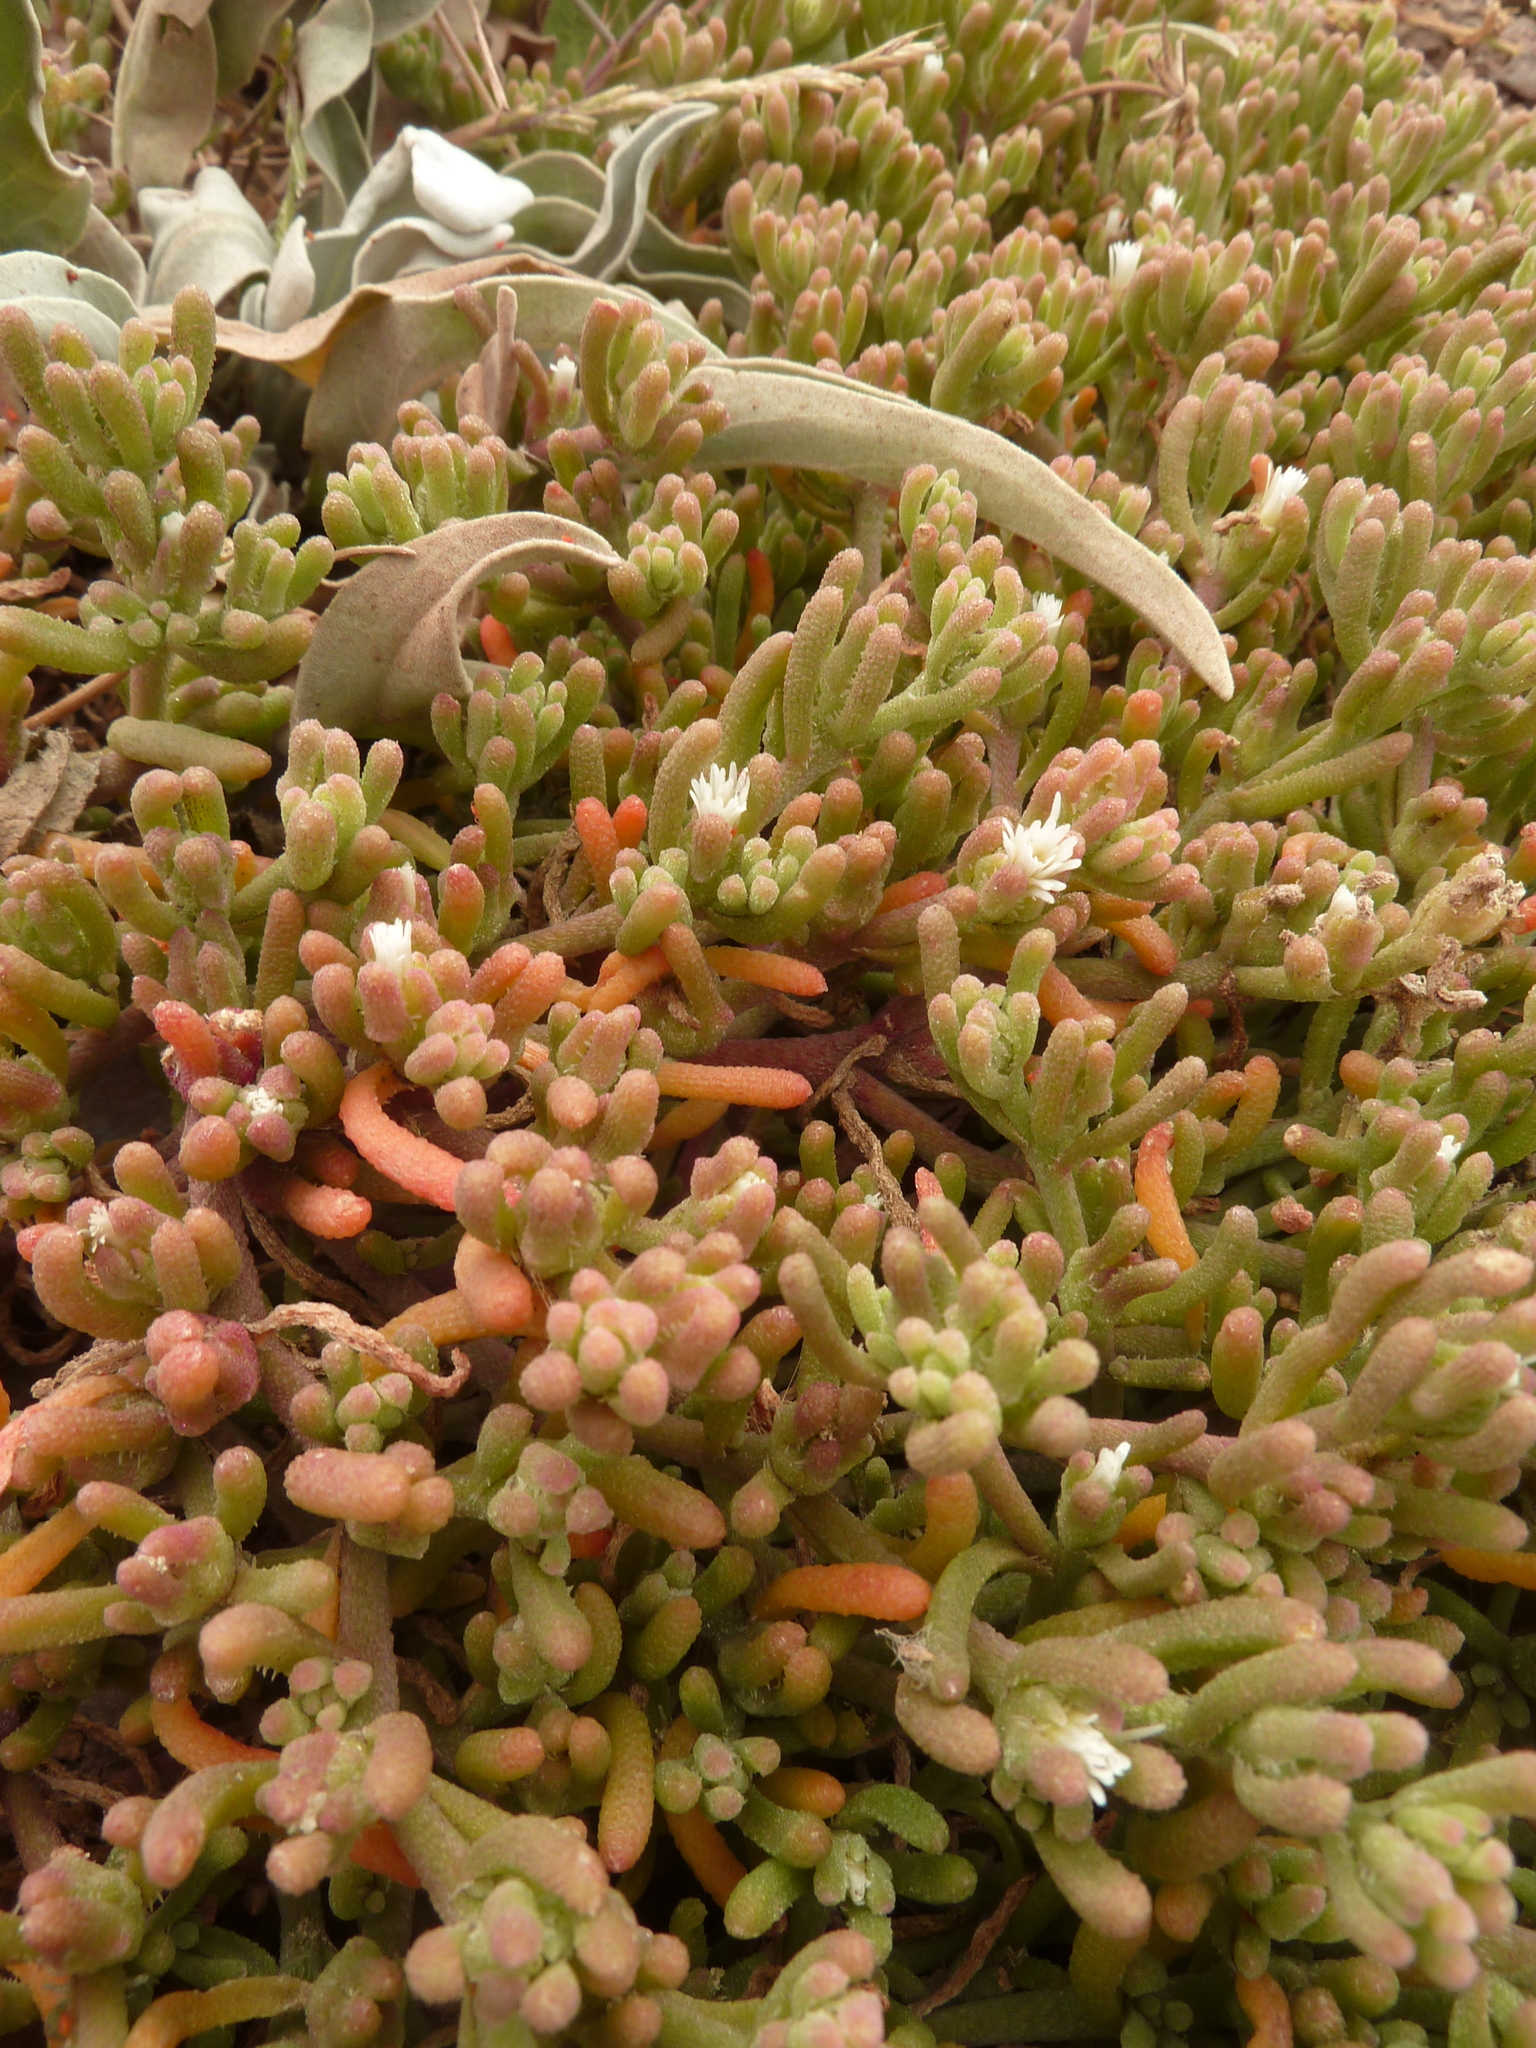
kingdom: Plantae
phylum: Tracheophyta
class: Magnoliopsida
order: Caryophyllales
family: Aizoaceae
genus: Mesembryanthemum
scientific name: Mesembryanthemum nodiflorum
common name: Slenderleaf iceplant
